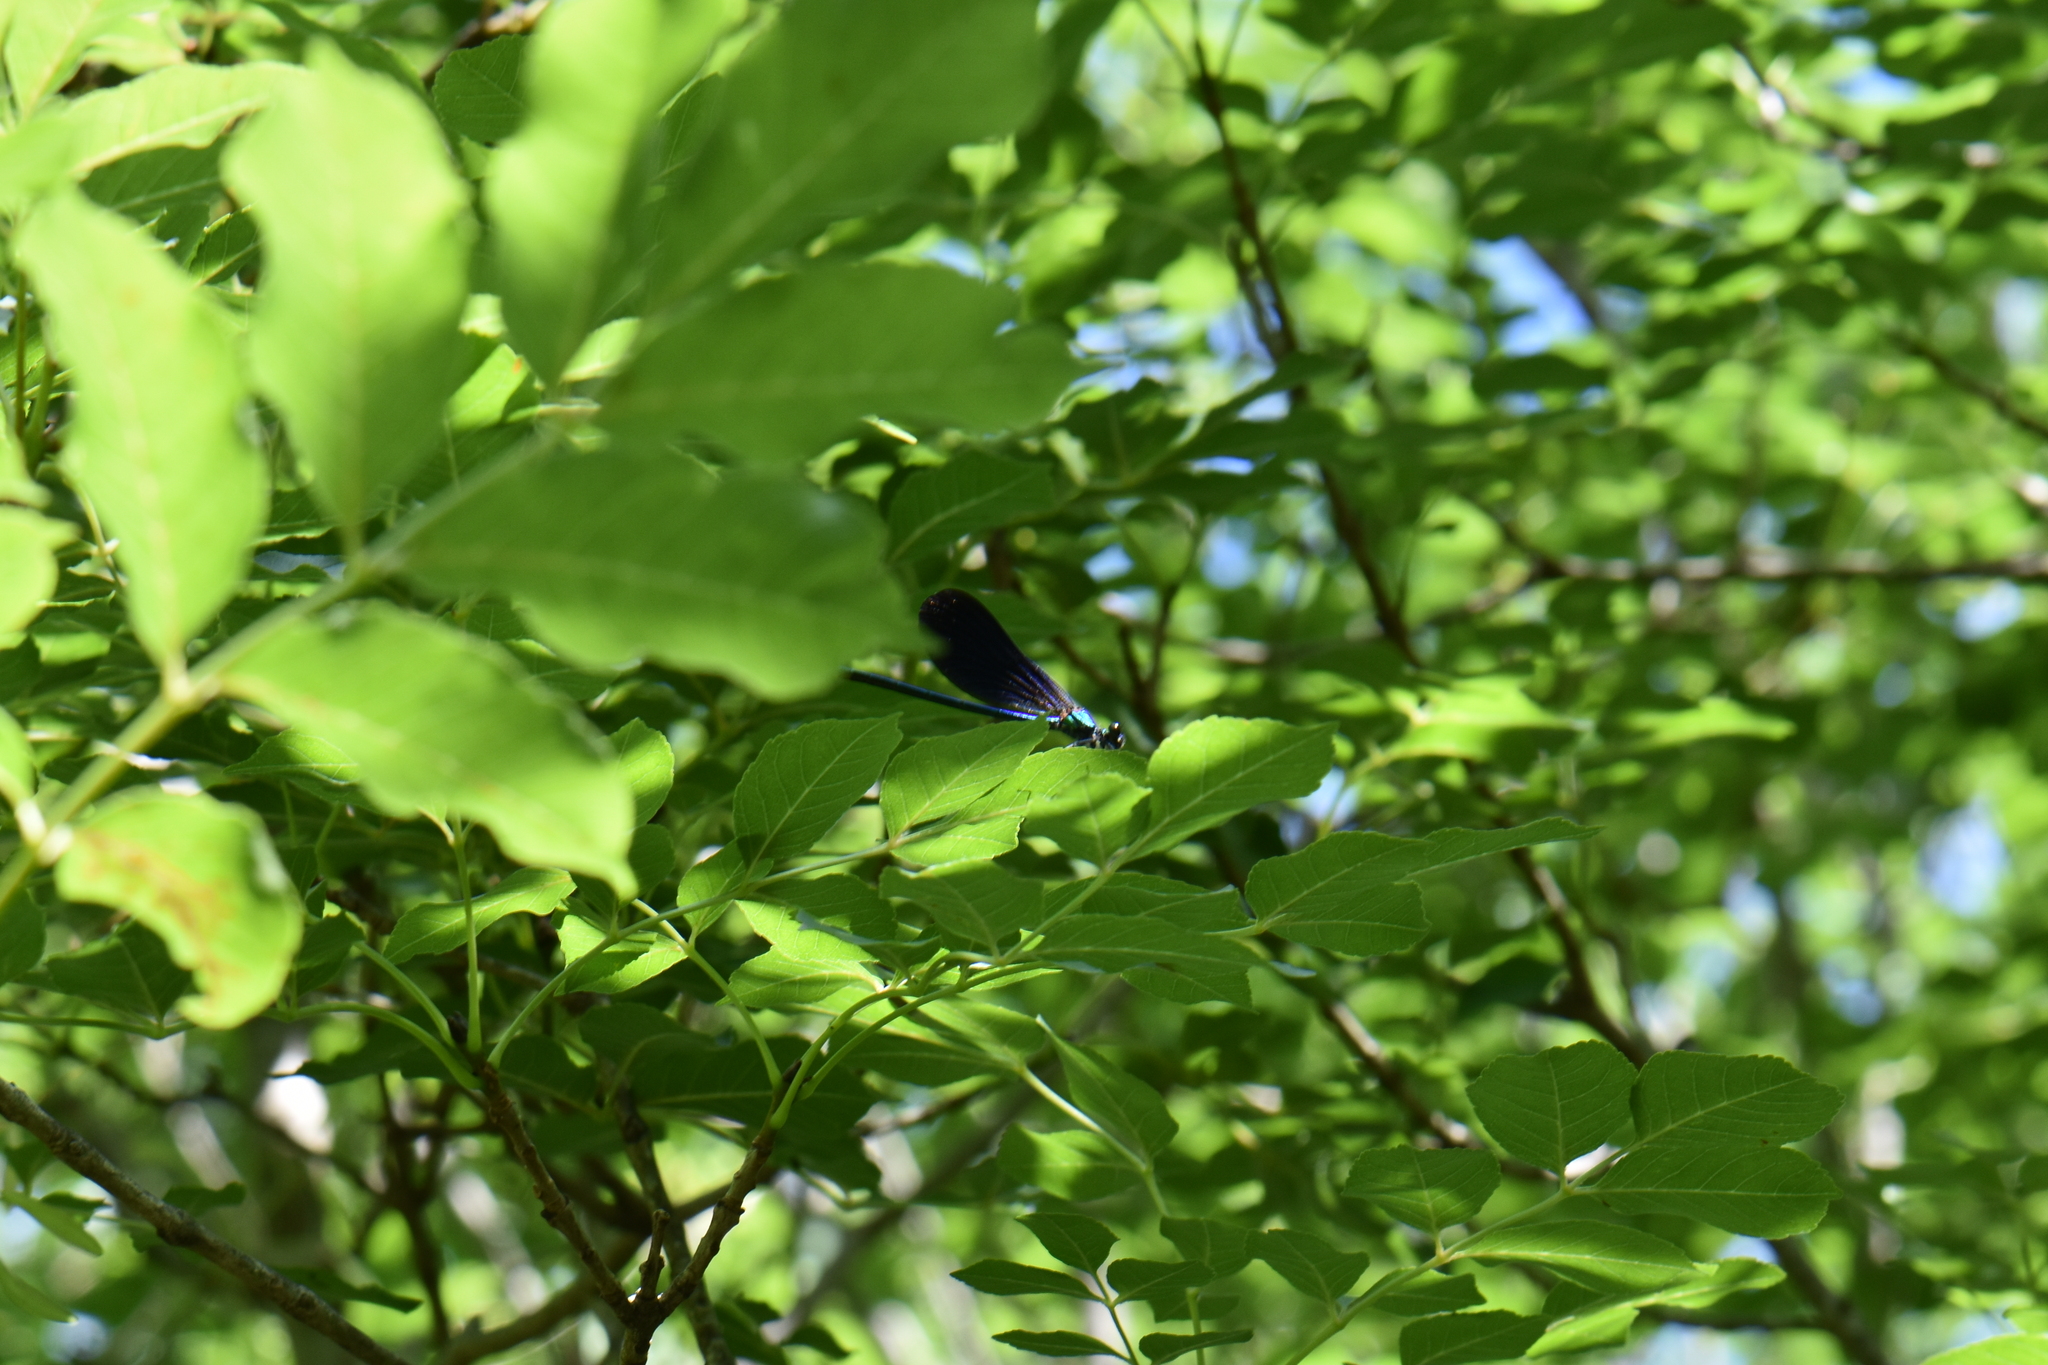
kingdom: Animalia
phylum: Arthropoda
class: Insecta
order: Odonata
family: Calopterygidae
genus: Calopteryx
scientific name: Calopteryx virgo
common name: Beautiful demoiselle
